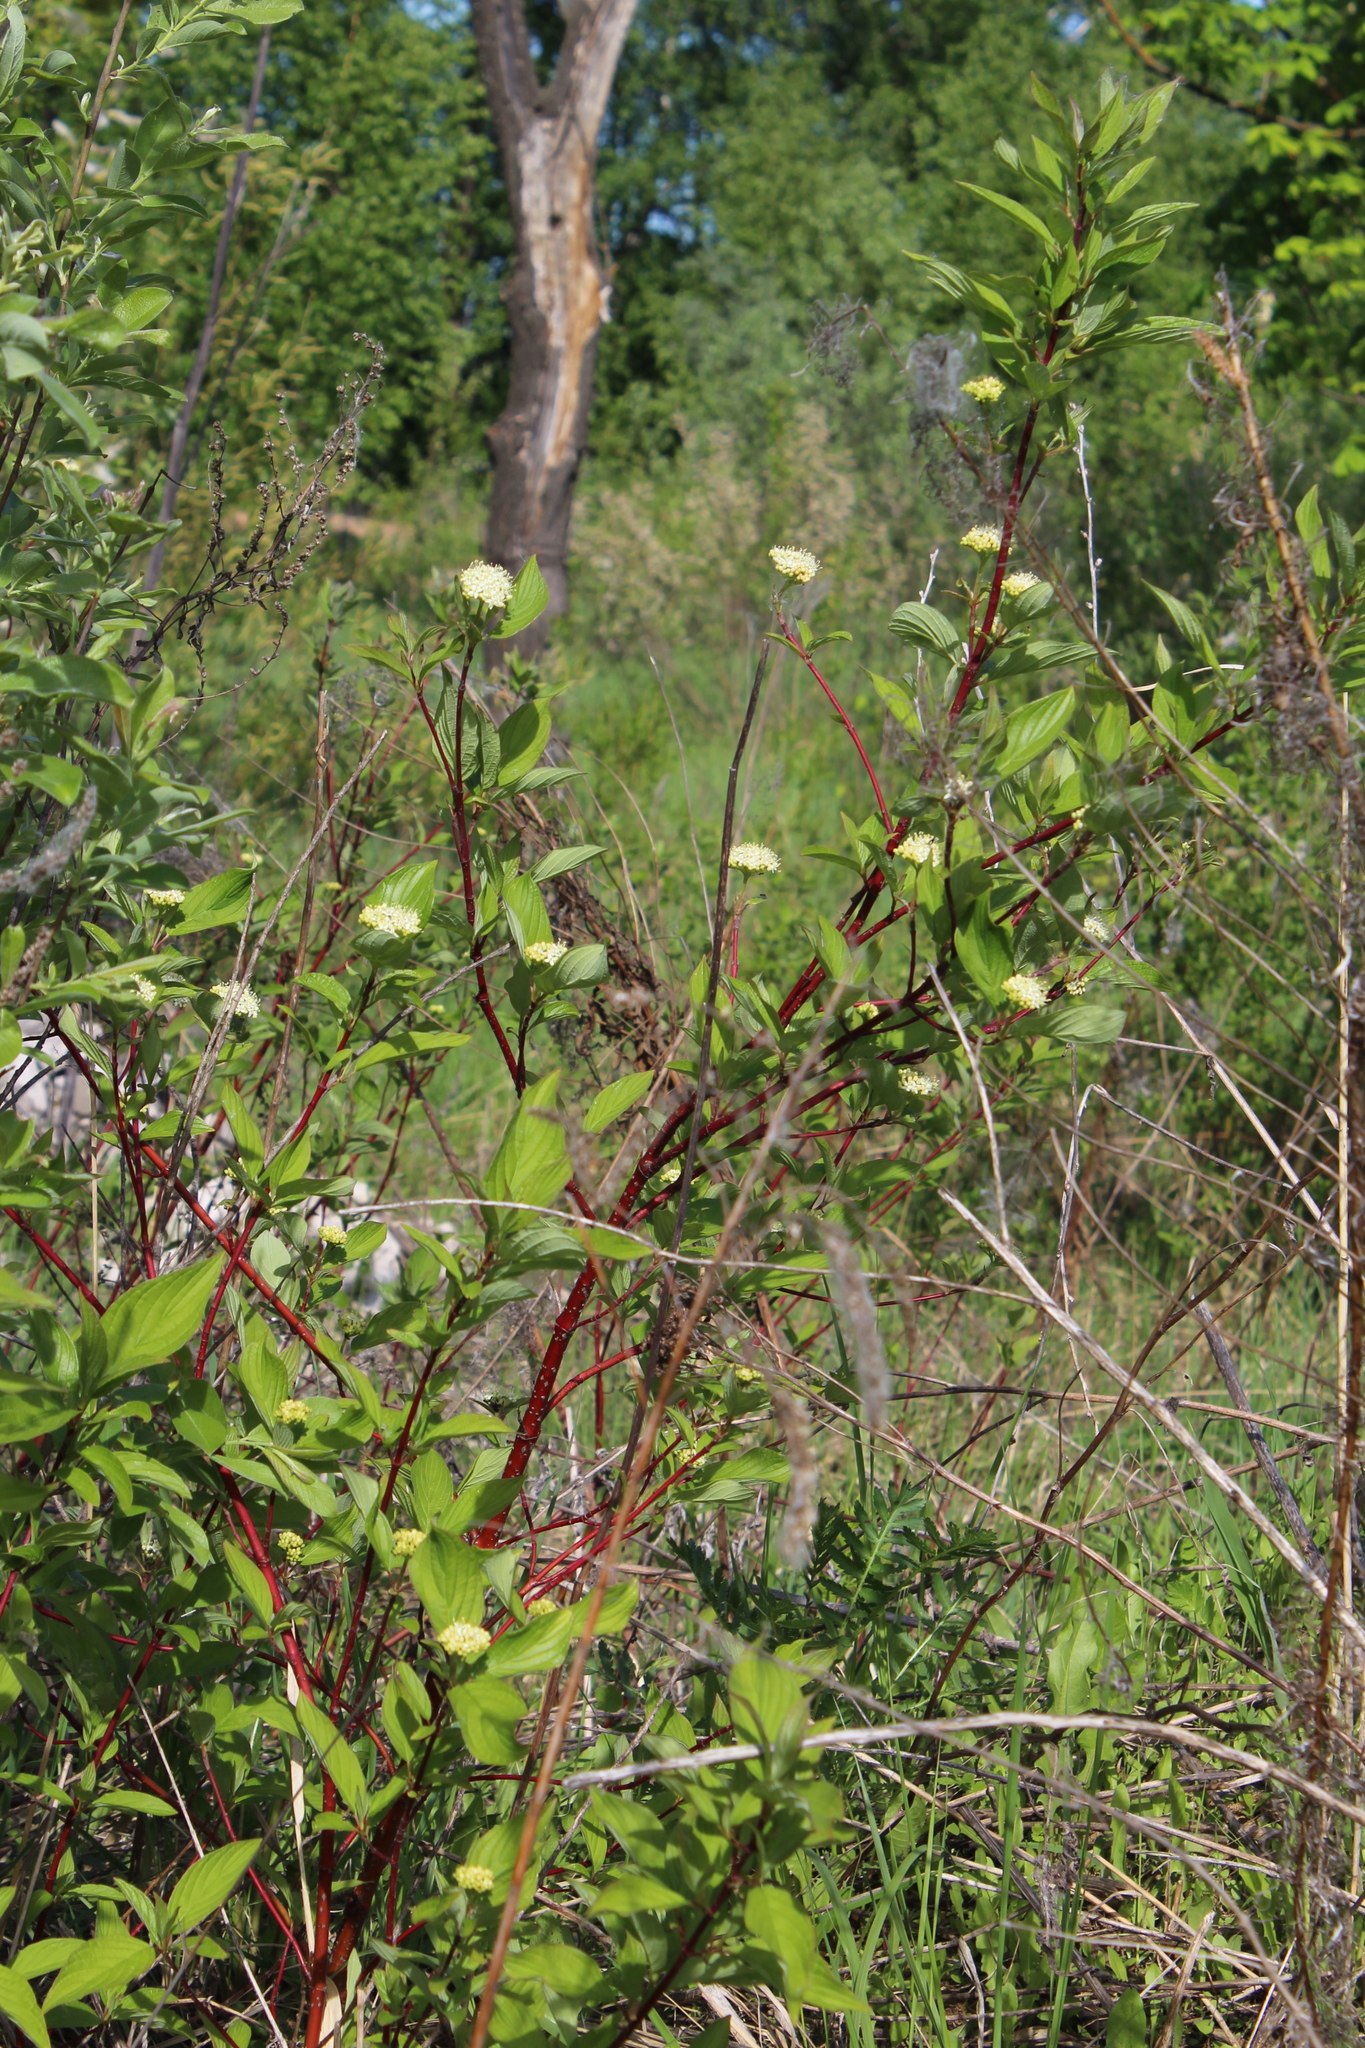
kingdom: Plantae
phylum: Tracheophyta
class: Magnoliopsida
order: Cornales
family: Cornaceae
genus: Cornus
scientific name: Cornus alba
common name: White dogwood
